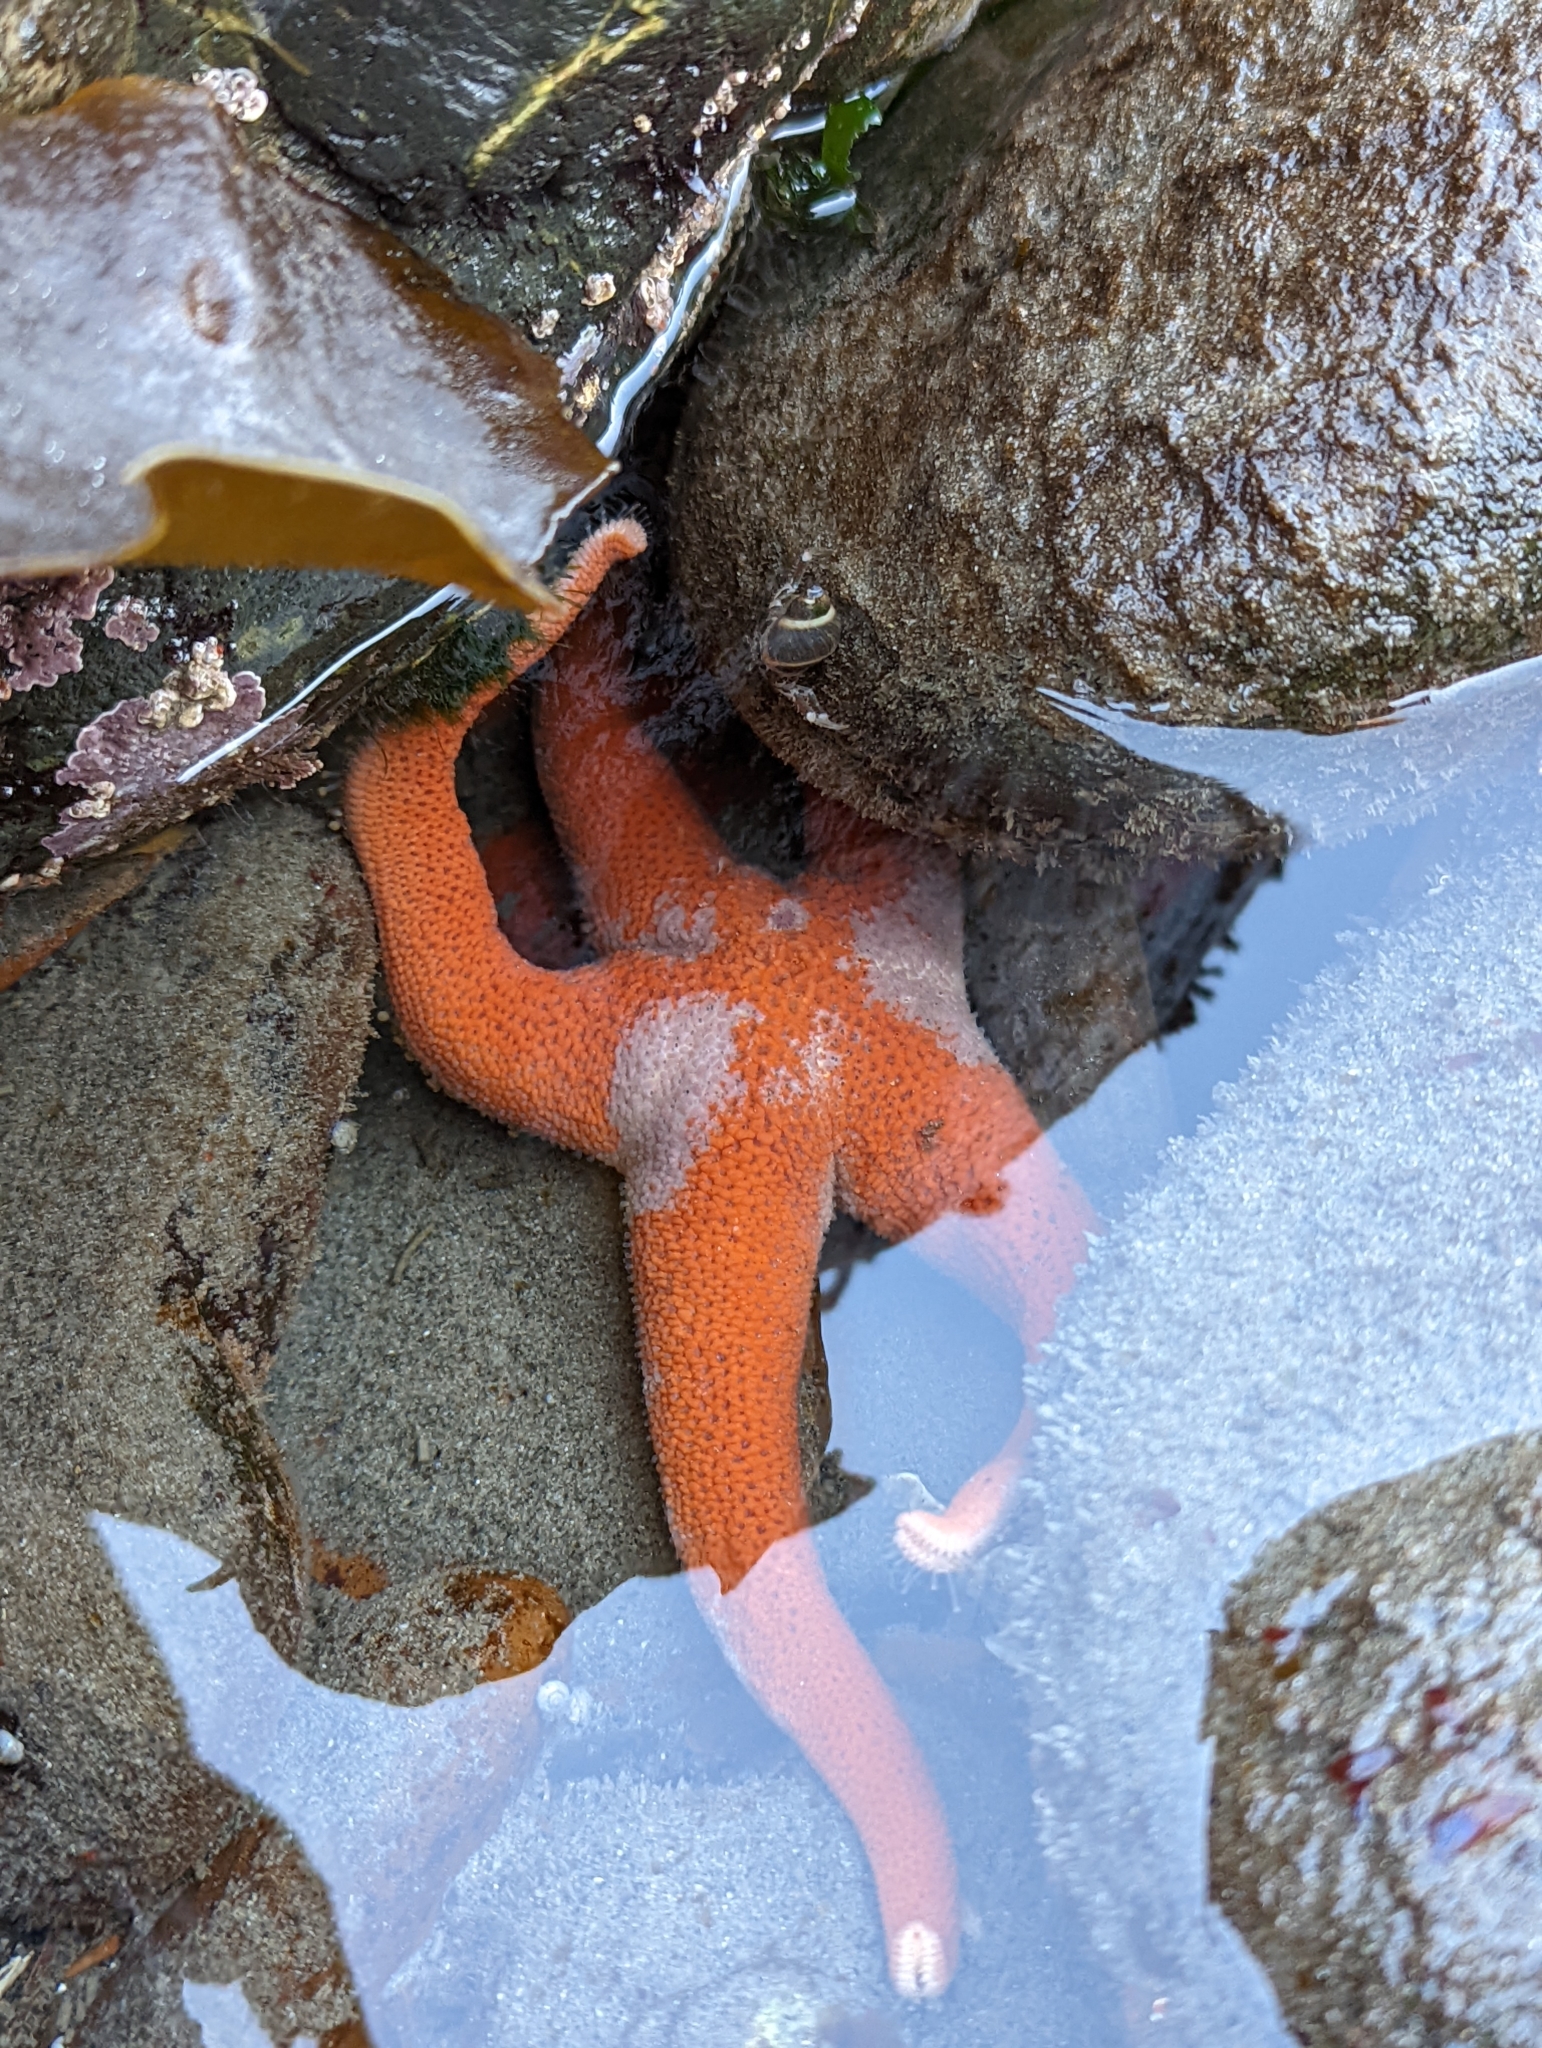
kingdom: Animalia
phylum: Echinodermata
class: Asteroidea
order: Spinulosida
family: Echinasteridae
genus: Henricia
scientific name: Henricia
